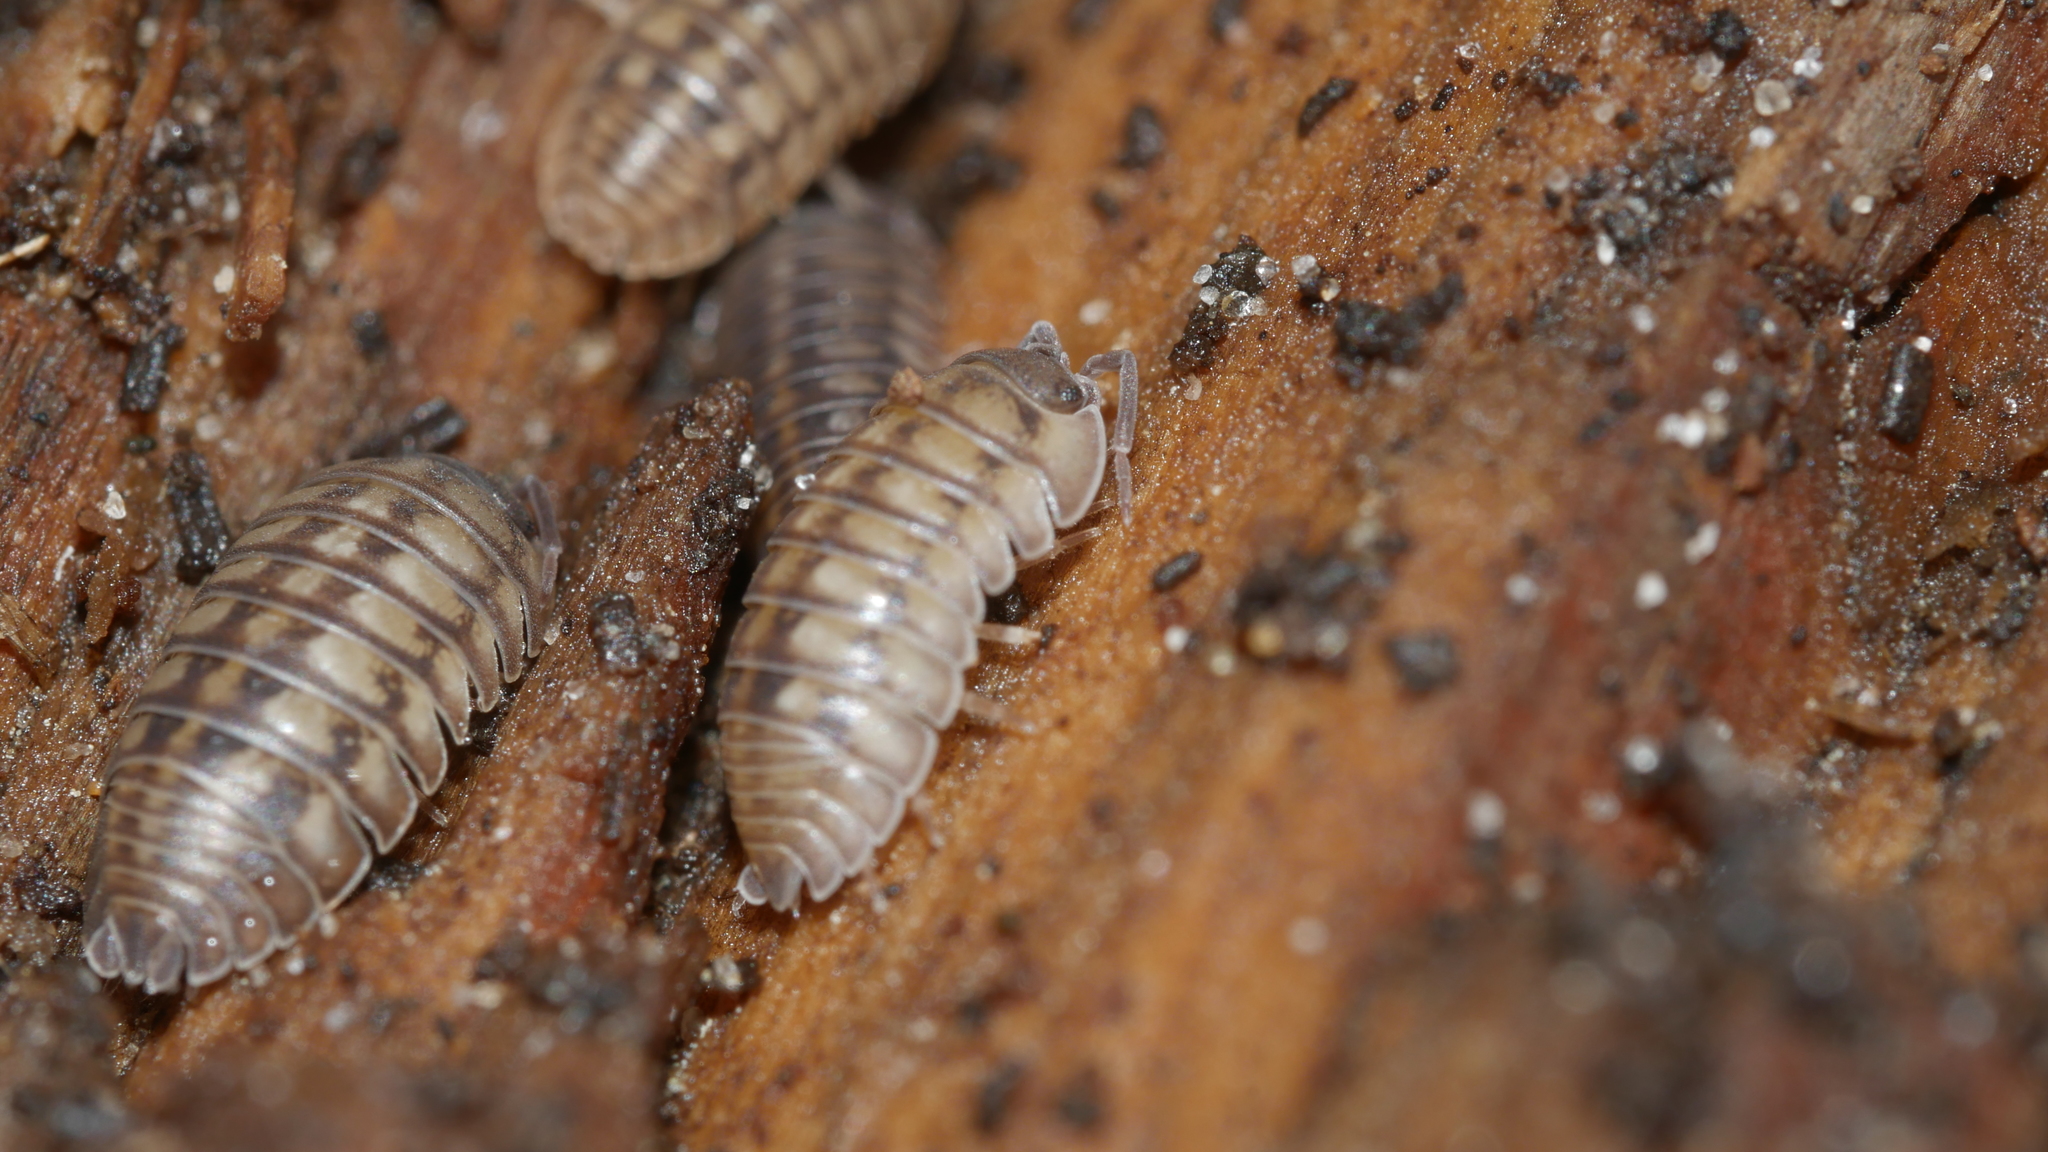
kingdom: Animalia
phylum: Arthropoda
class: Malacostraca
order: Isopoda
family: Armadillidiidae
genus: Armadillidium
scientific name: Armadillidium nasatum
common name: Isopod
